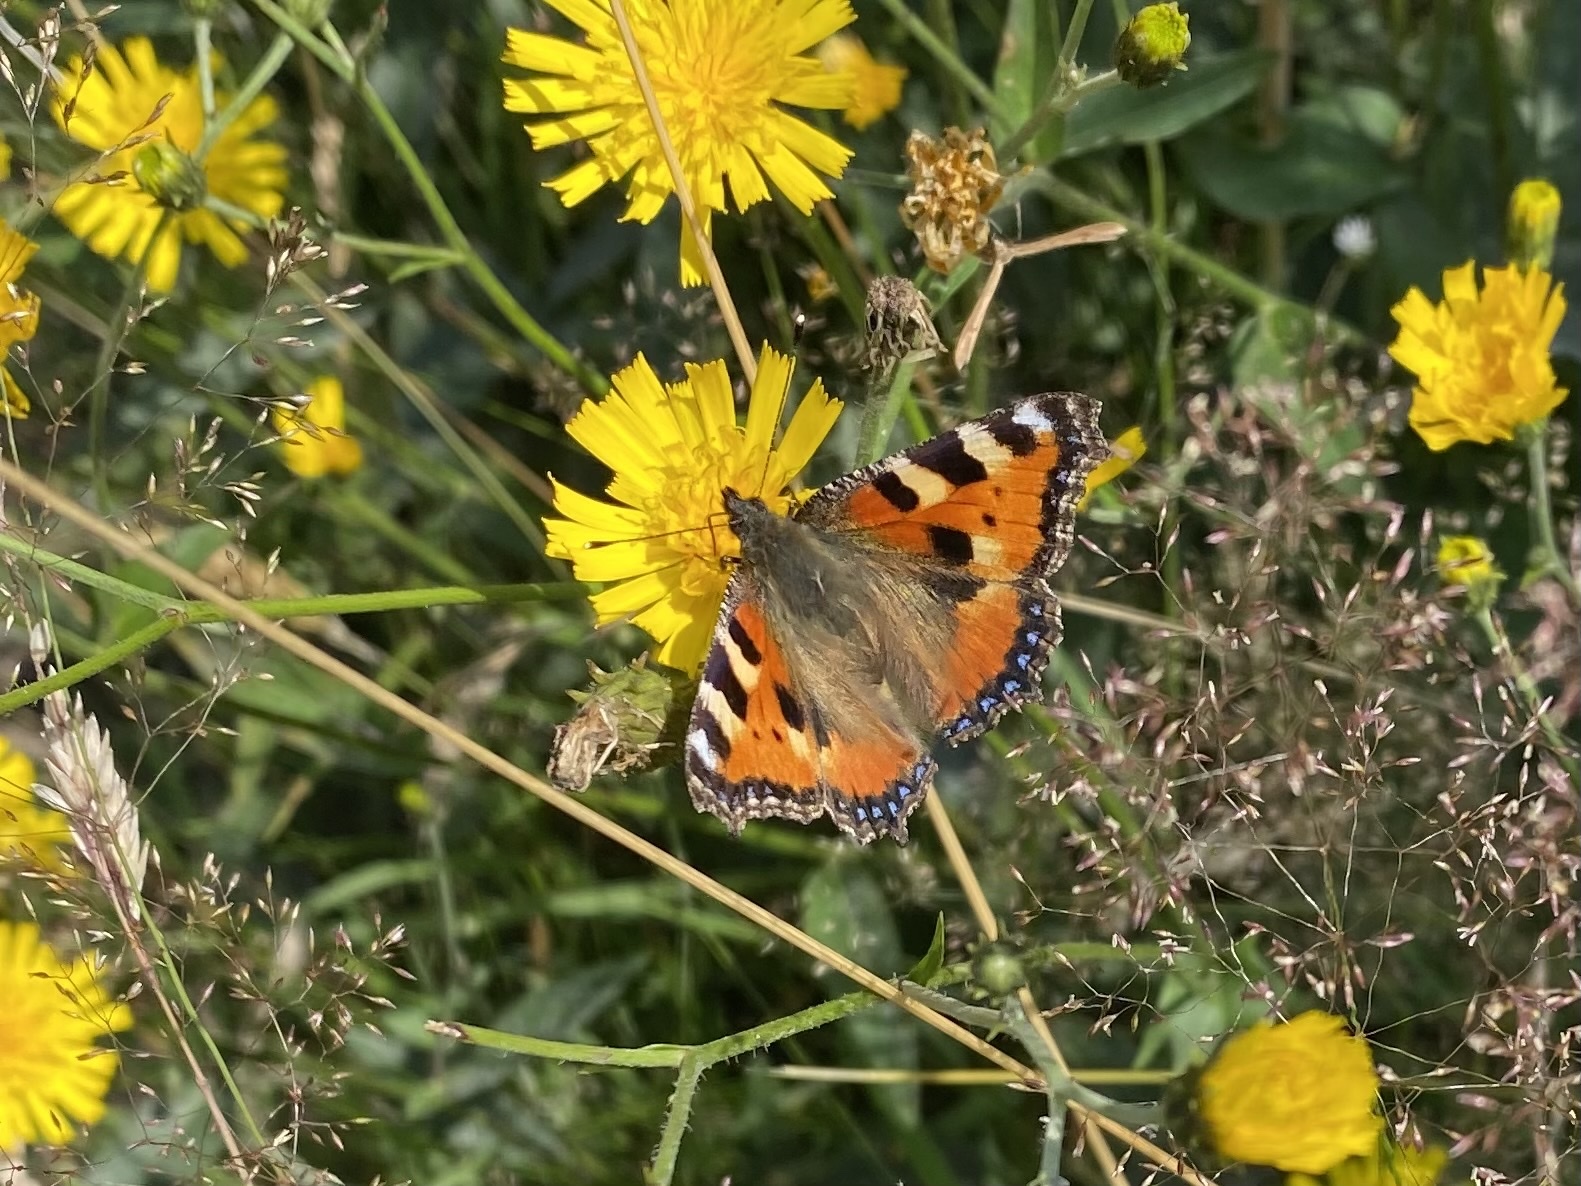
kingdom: Animalia
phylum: Arthropoda
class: Insecta
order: Lepidoptera
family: Nymphalidae
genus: Aglais
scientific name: Aglais urticae
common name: Small tortoiseshell
